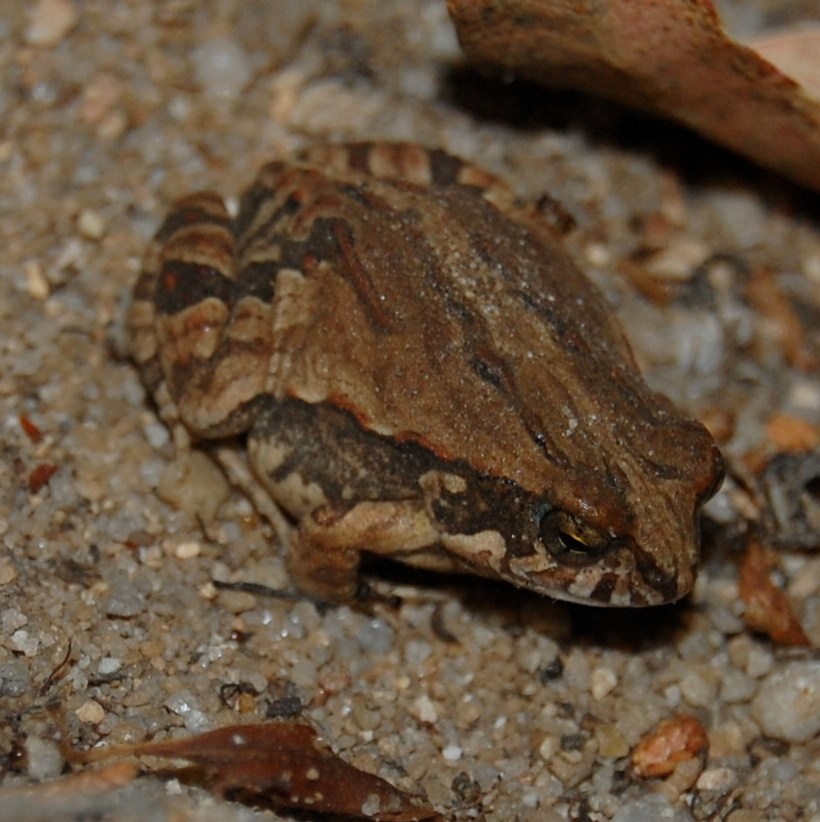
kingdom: Animalia
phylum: Chordata
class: Amphibia
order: Anura
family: Leptodactylidae
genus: Physalaemus
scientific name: Physalaemus biligonigerus
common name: Weeping frog
